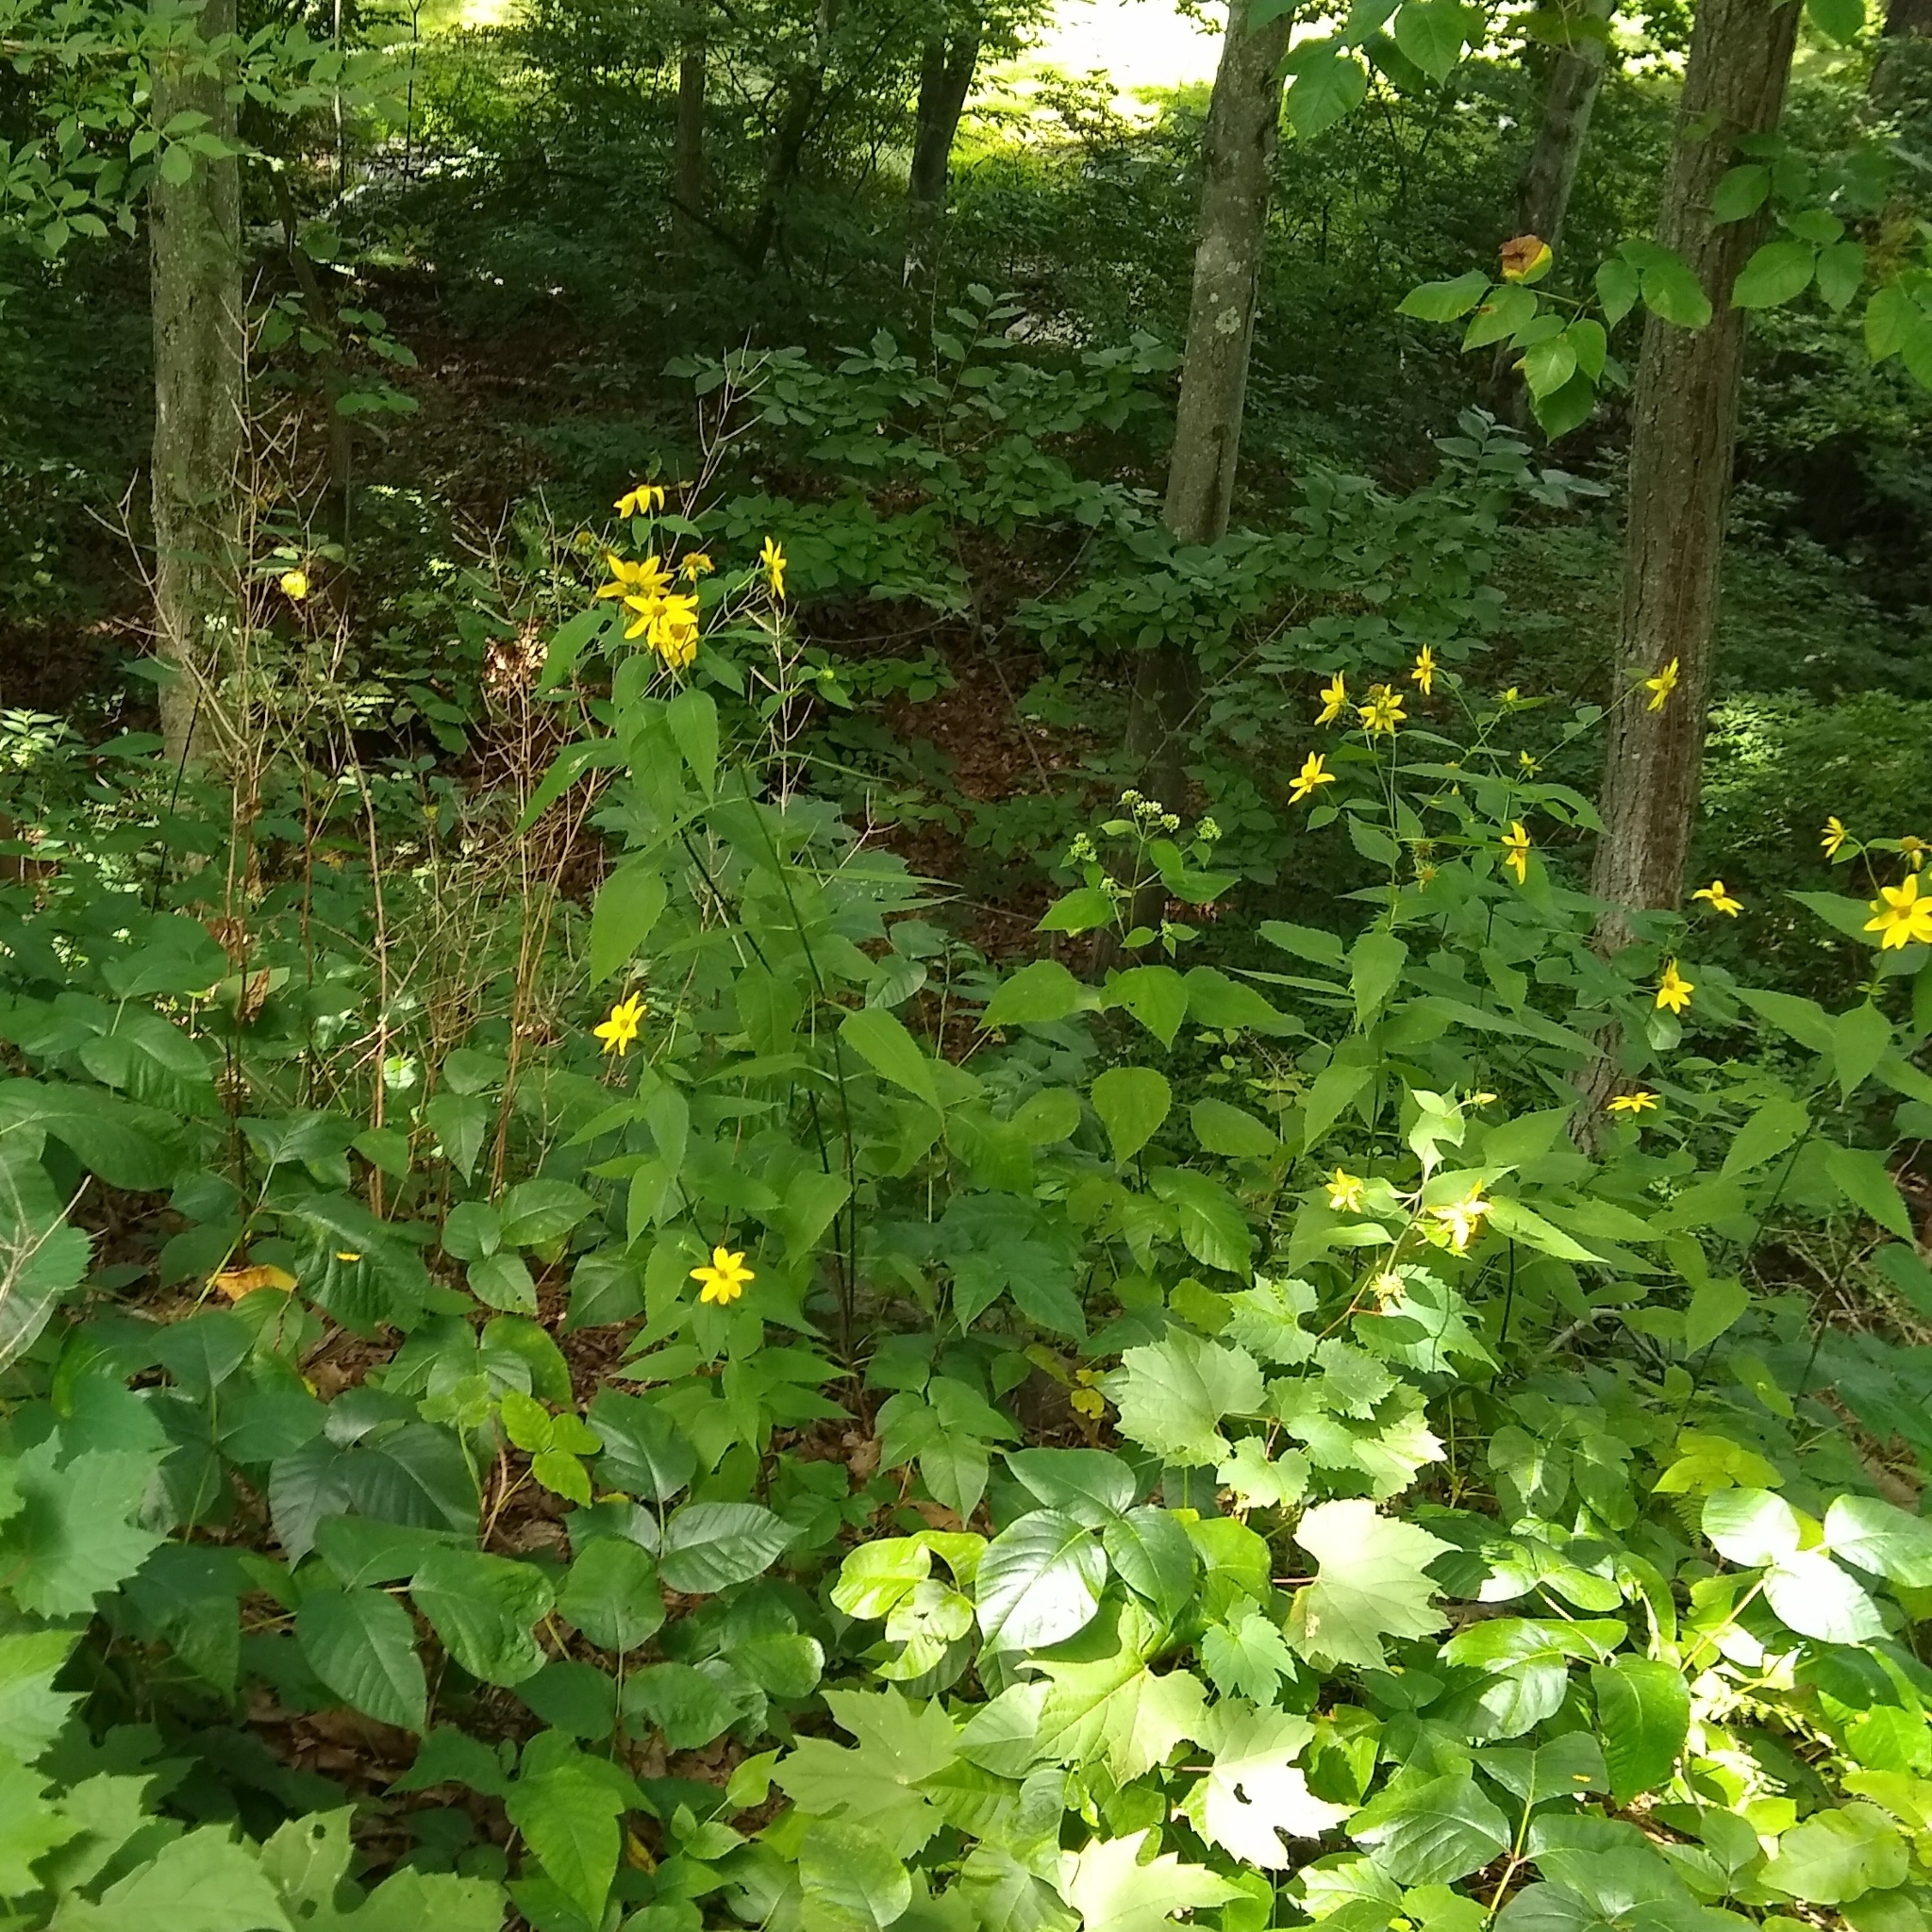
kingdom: Plantae
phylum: Tracheophyta
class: Magnoliopsida
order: Asterales
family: Asteraceae
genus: Helianthus
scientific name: Helianthus decapetalus
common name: Thin-leaved sunflower
